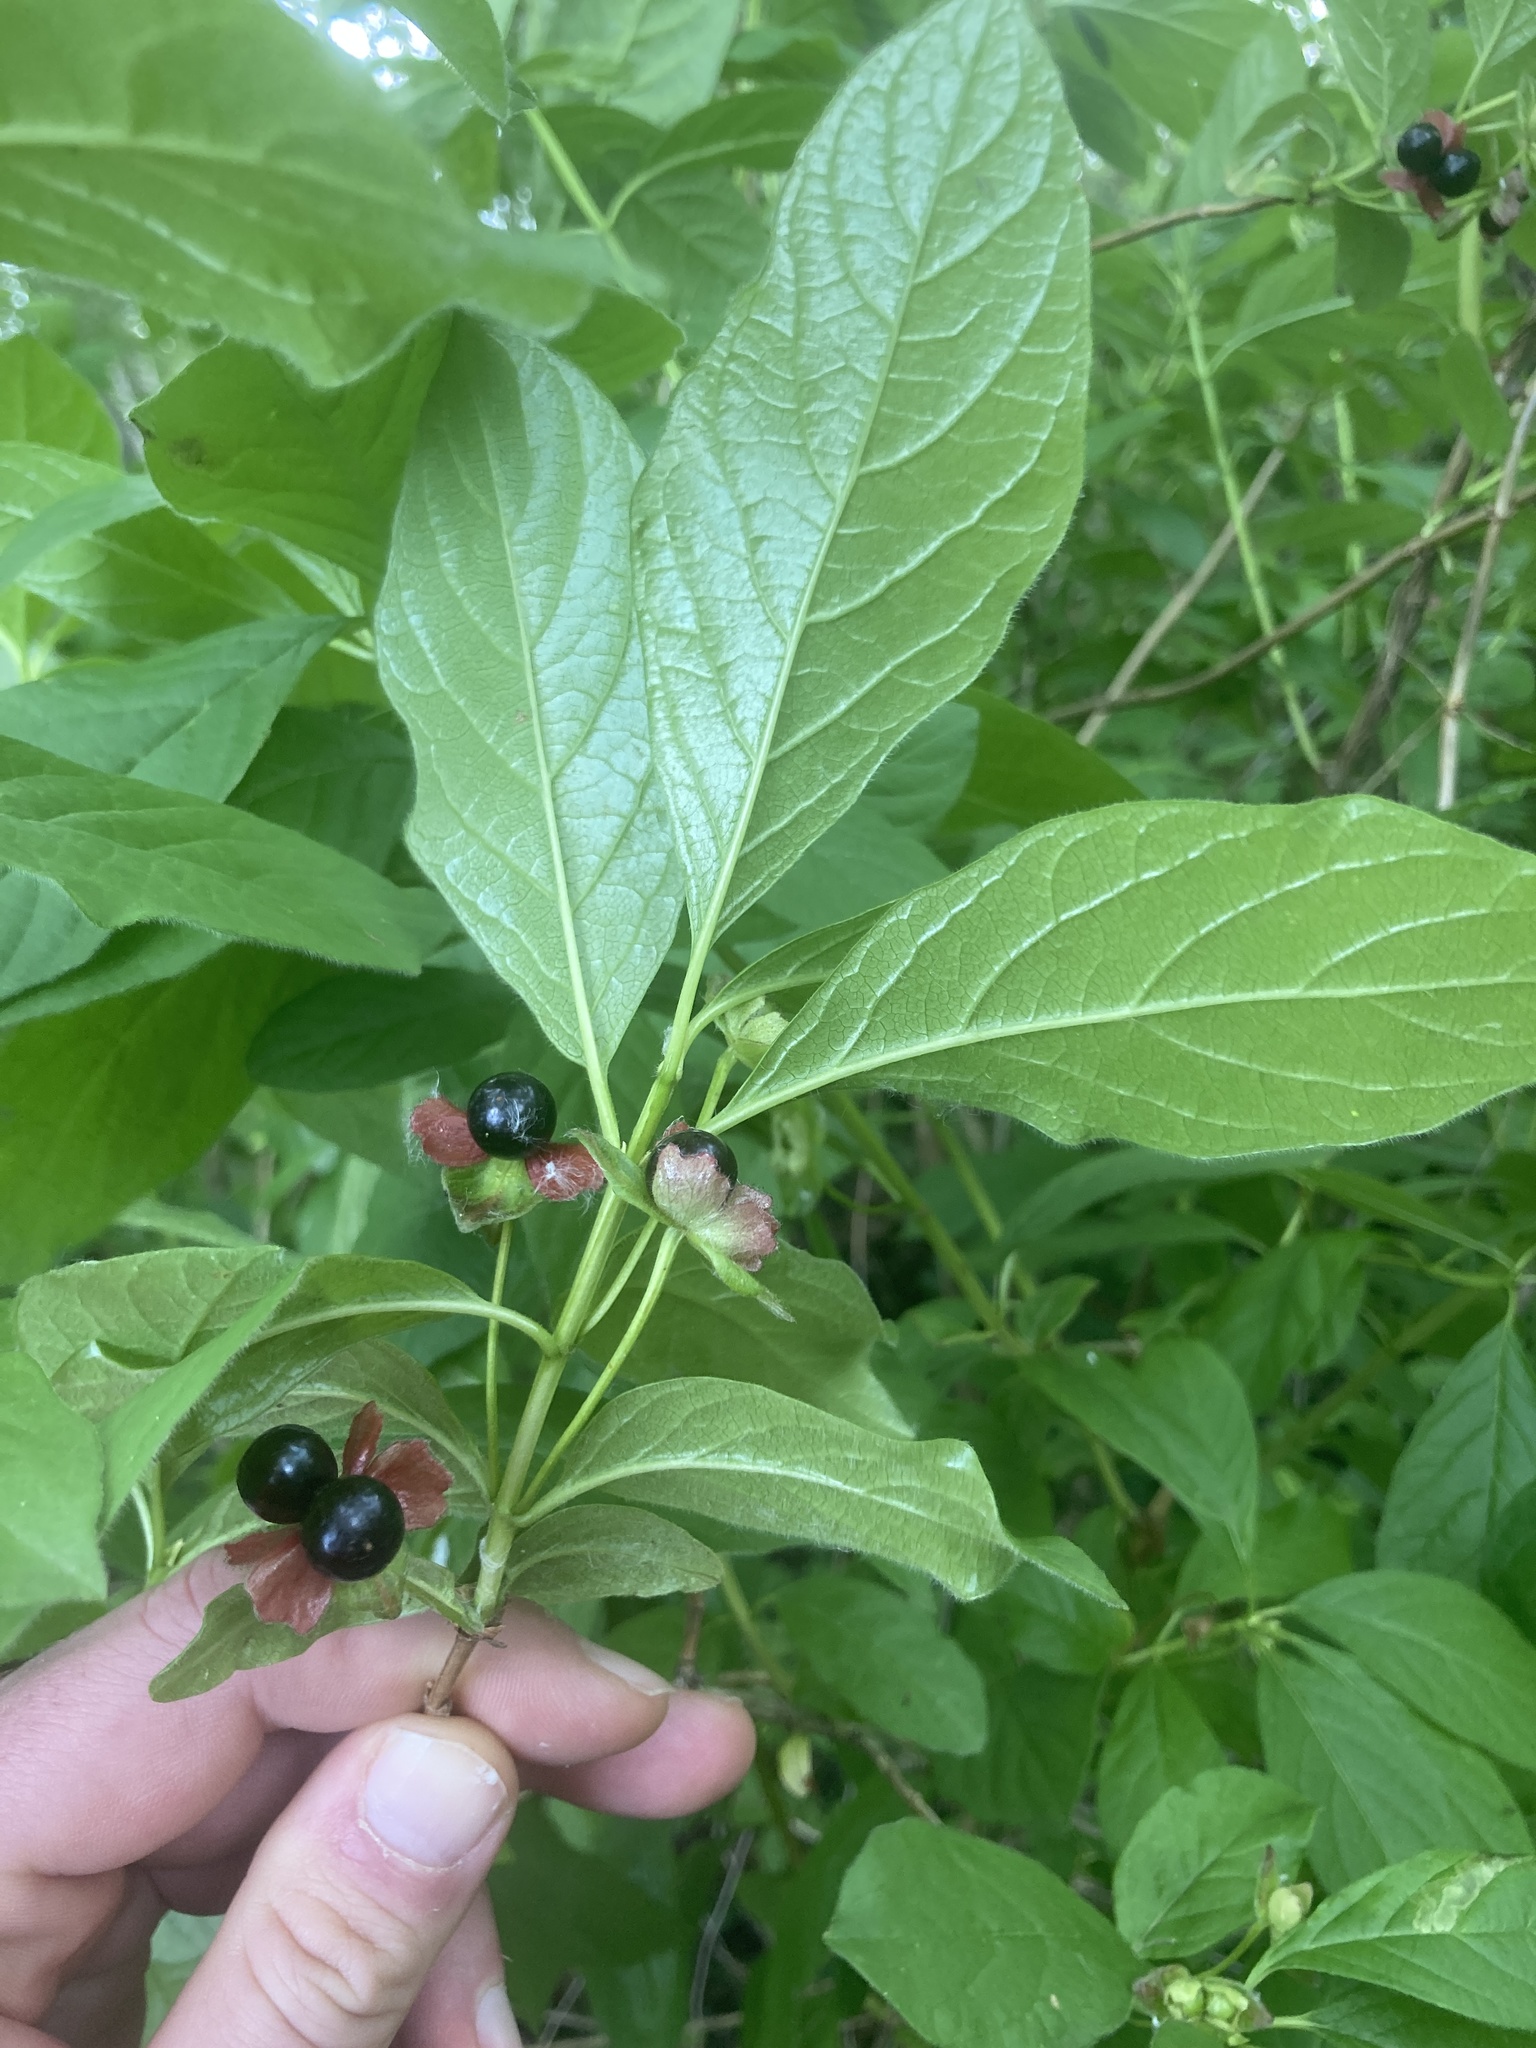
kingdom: Plantae
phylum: Tracheophyta
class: Magnoliopsida
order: Dipsacales
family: Caprifoliaceae
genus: Lonicera
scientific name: Lonicera involucrata
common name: Californian honeysuckle
